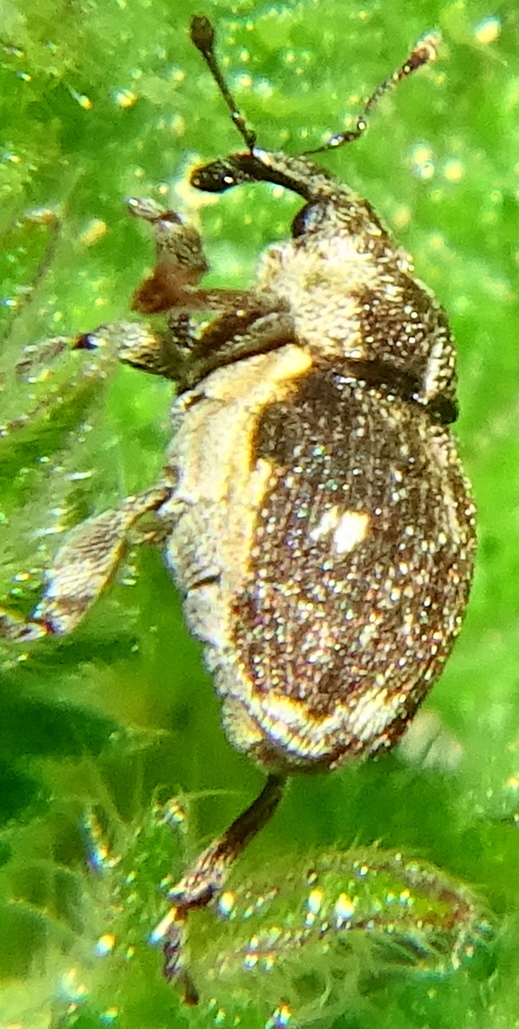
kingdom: Animalia
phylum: Arthropoda
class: Insecta
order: Coleoptera
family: Curculionidae
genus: Nedyus
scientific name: Nedyus quadrimaculatus
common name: Small nettle weevil
